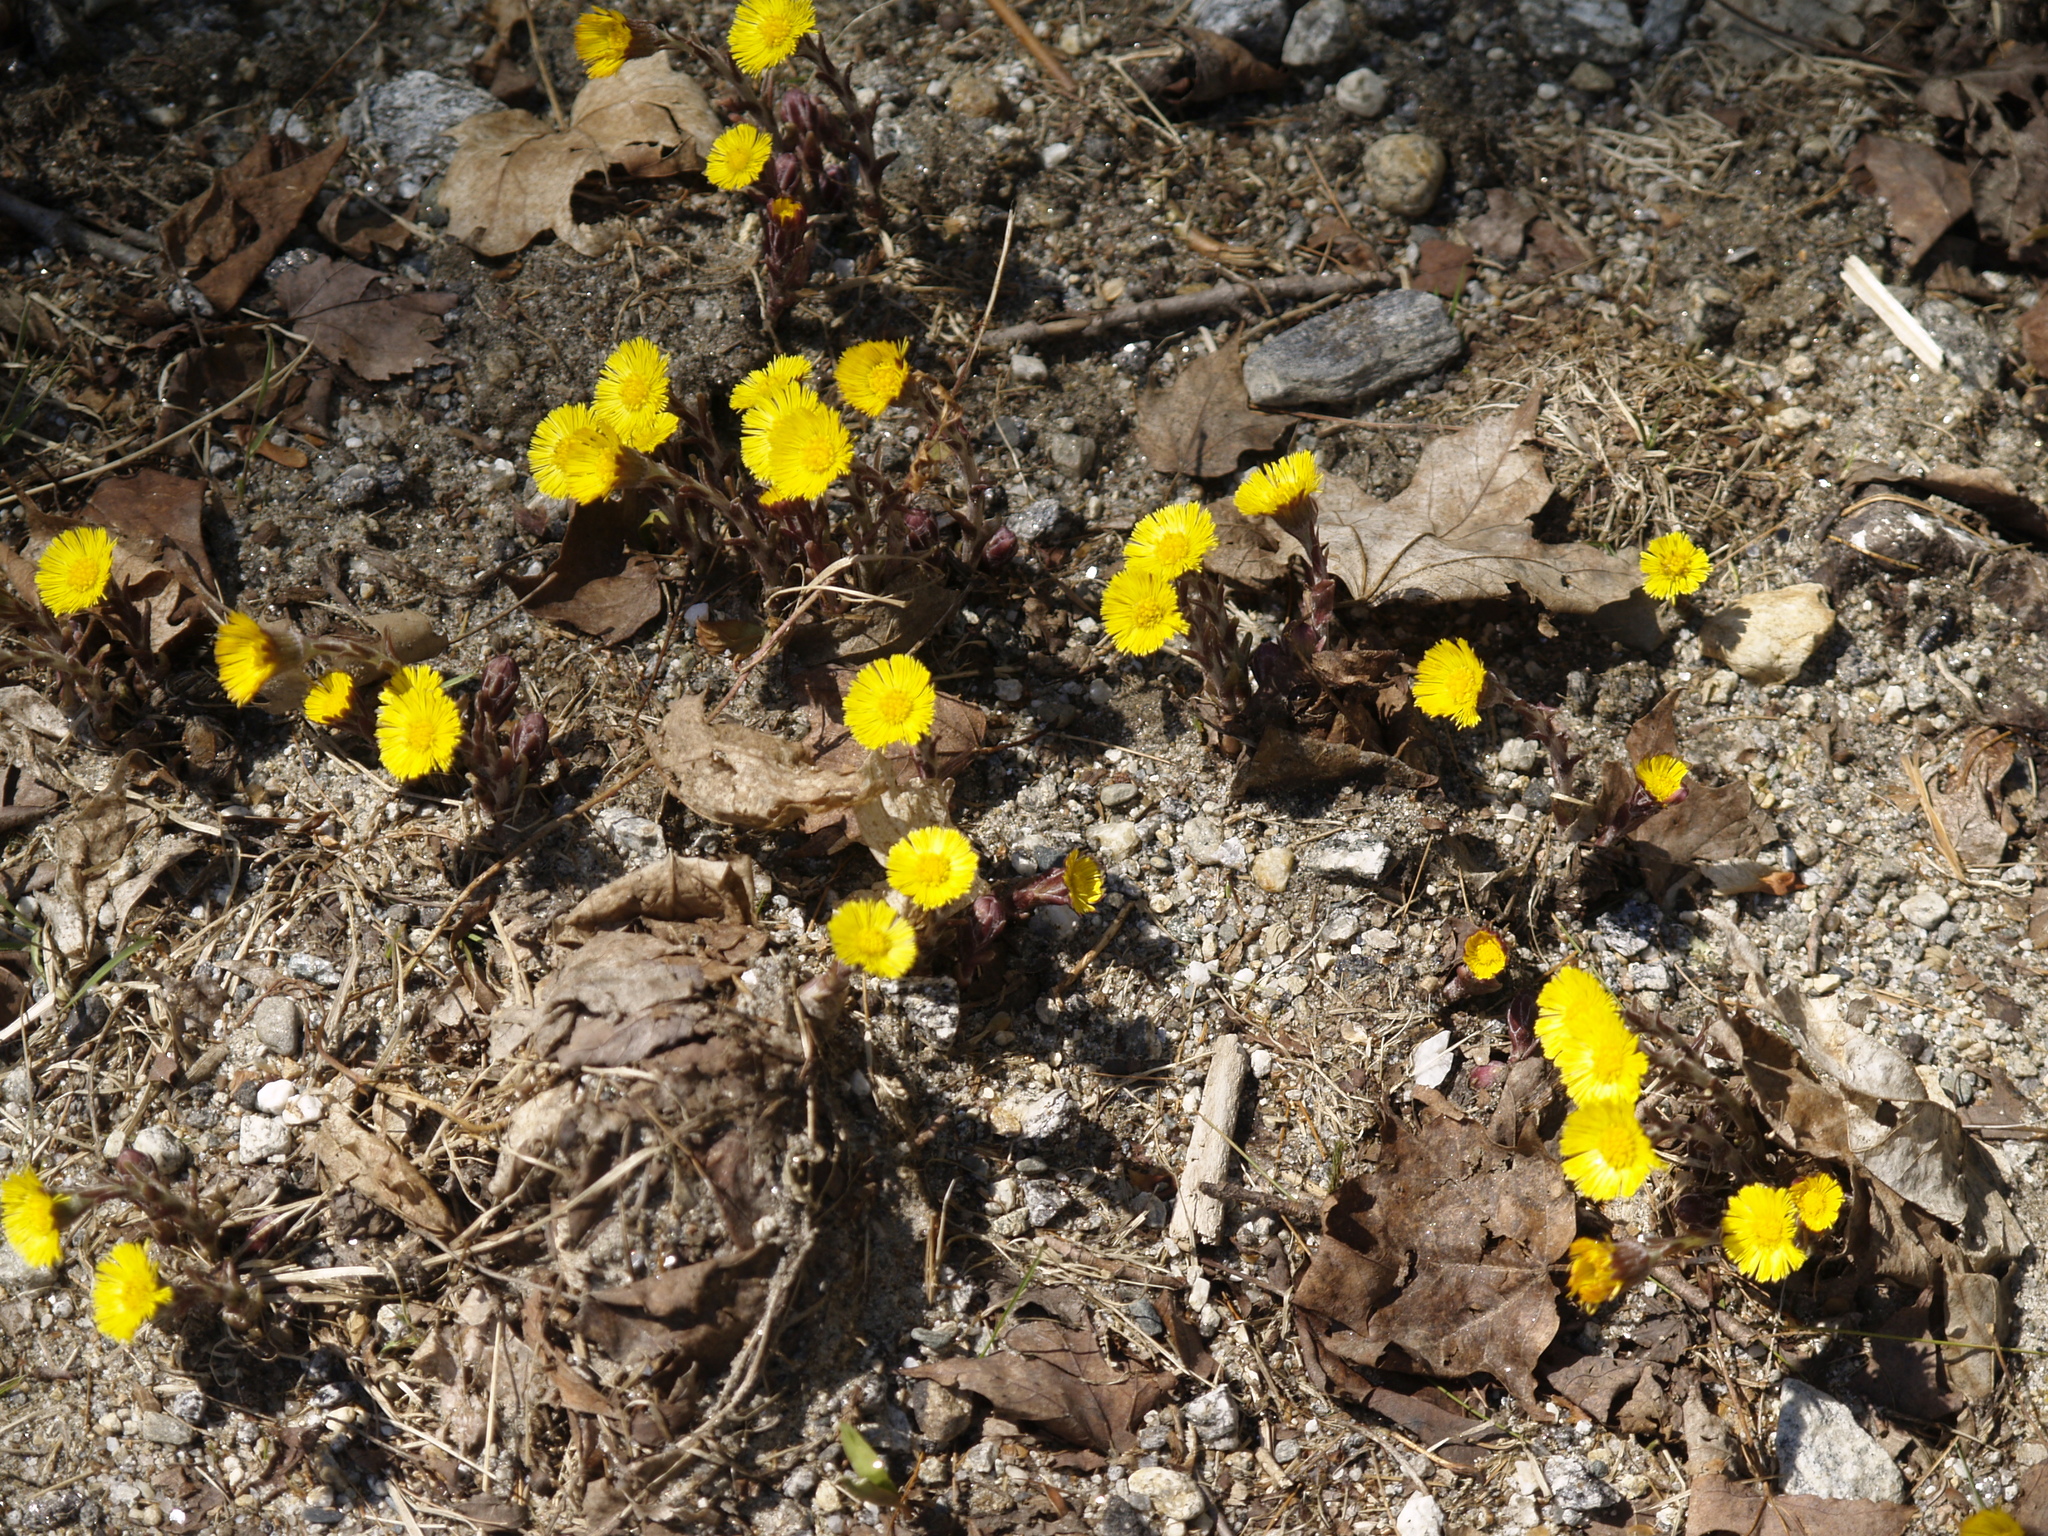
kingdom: Plantae
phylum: Tracheophyta
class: Magnoliopsida
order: Asterales
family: Asteraceae
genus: Tussilago
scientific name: Tussilago farfara
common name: Coltsfoot
